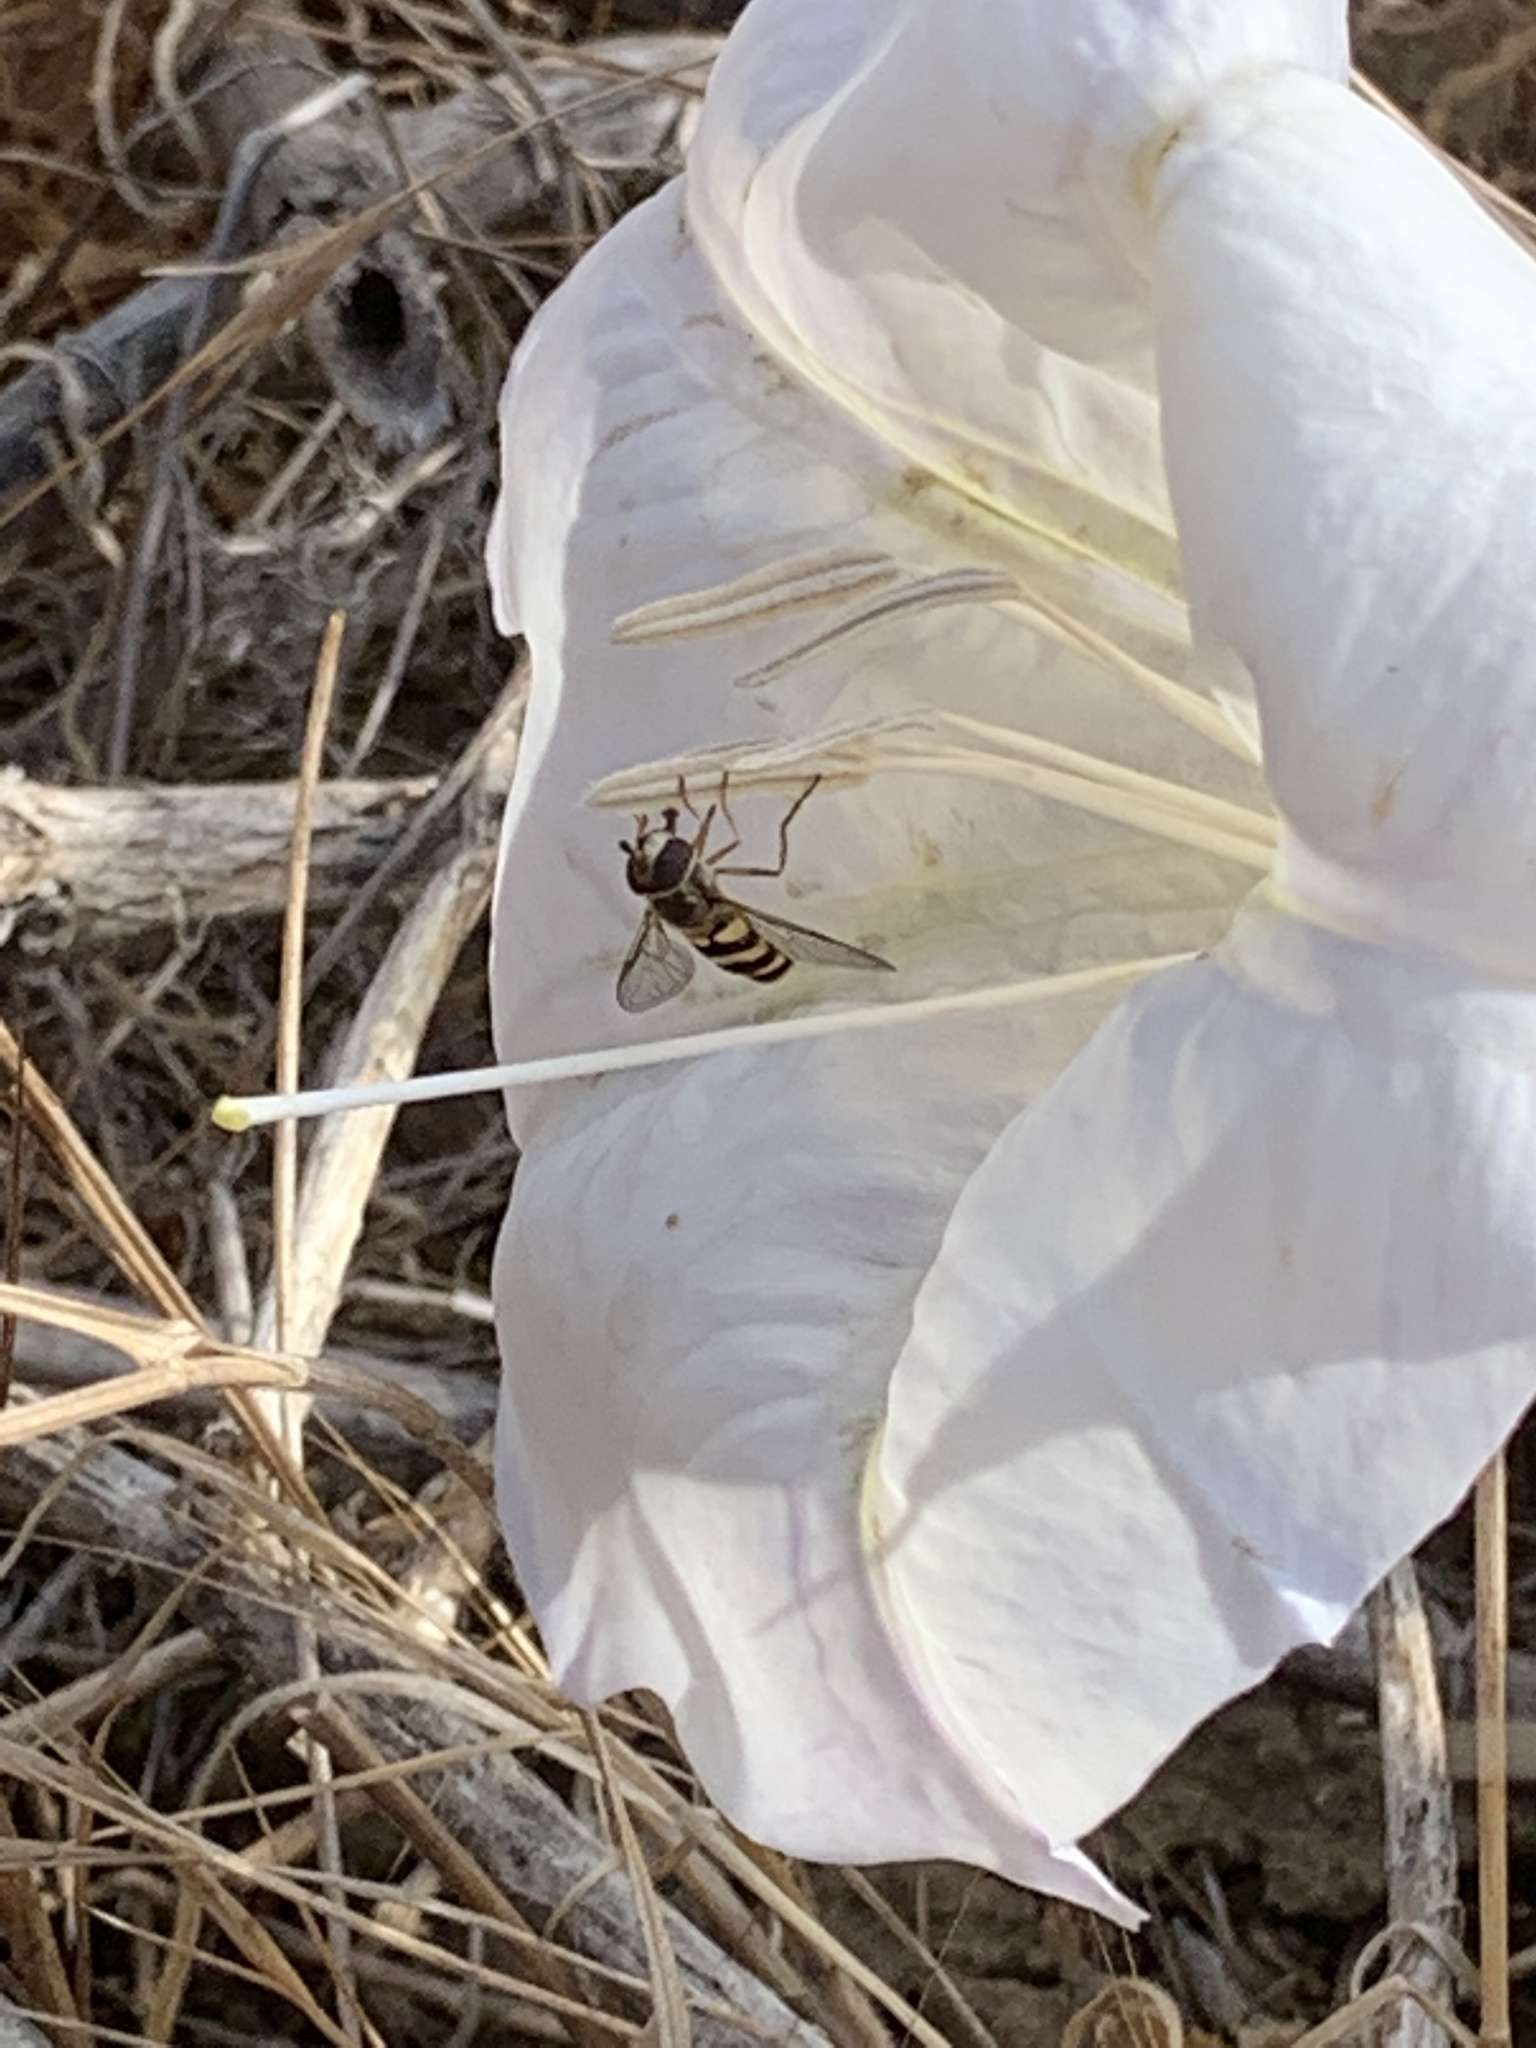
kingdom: Plantae
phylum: Tracheophyta
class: Magnoliopsida
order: Solanales
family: Solanaceae
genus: Datura
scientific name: Datura wrightii
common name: Sacred thorn-apple
